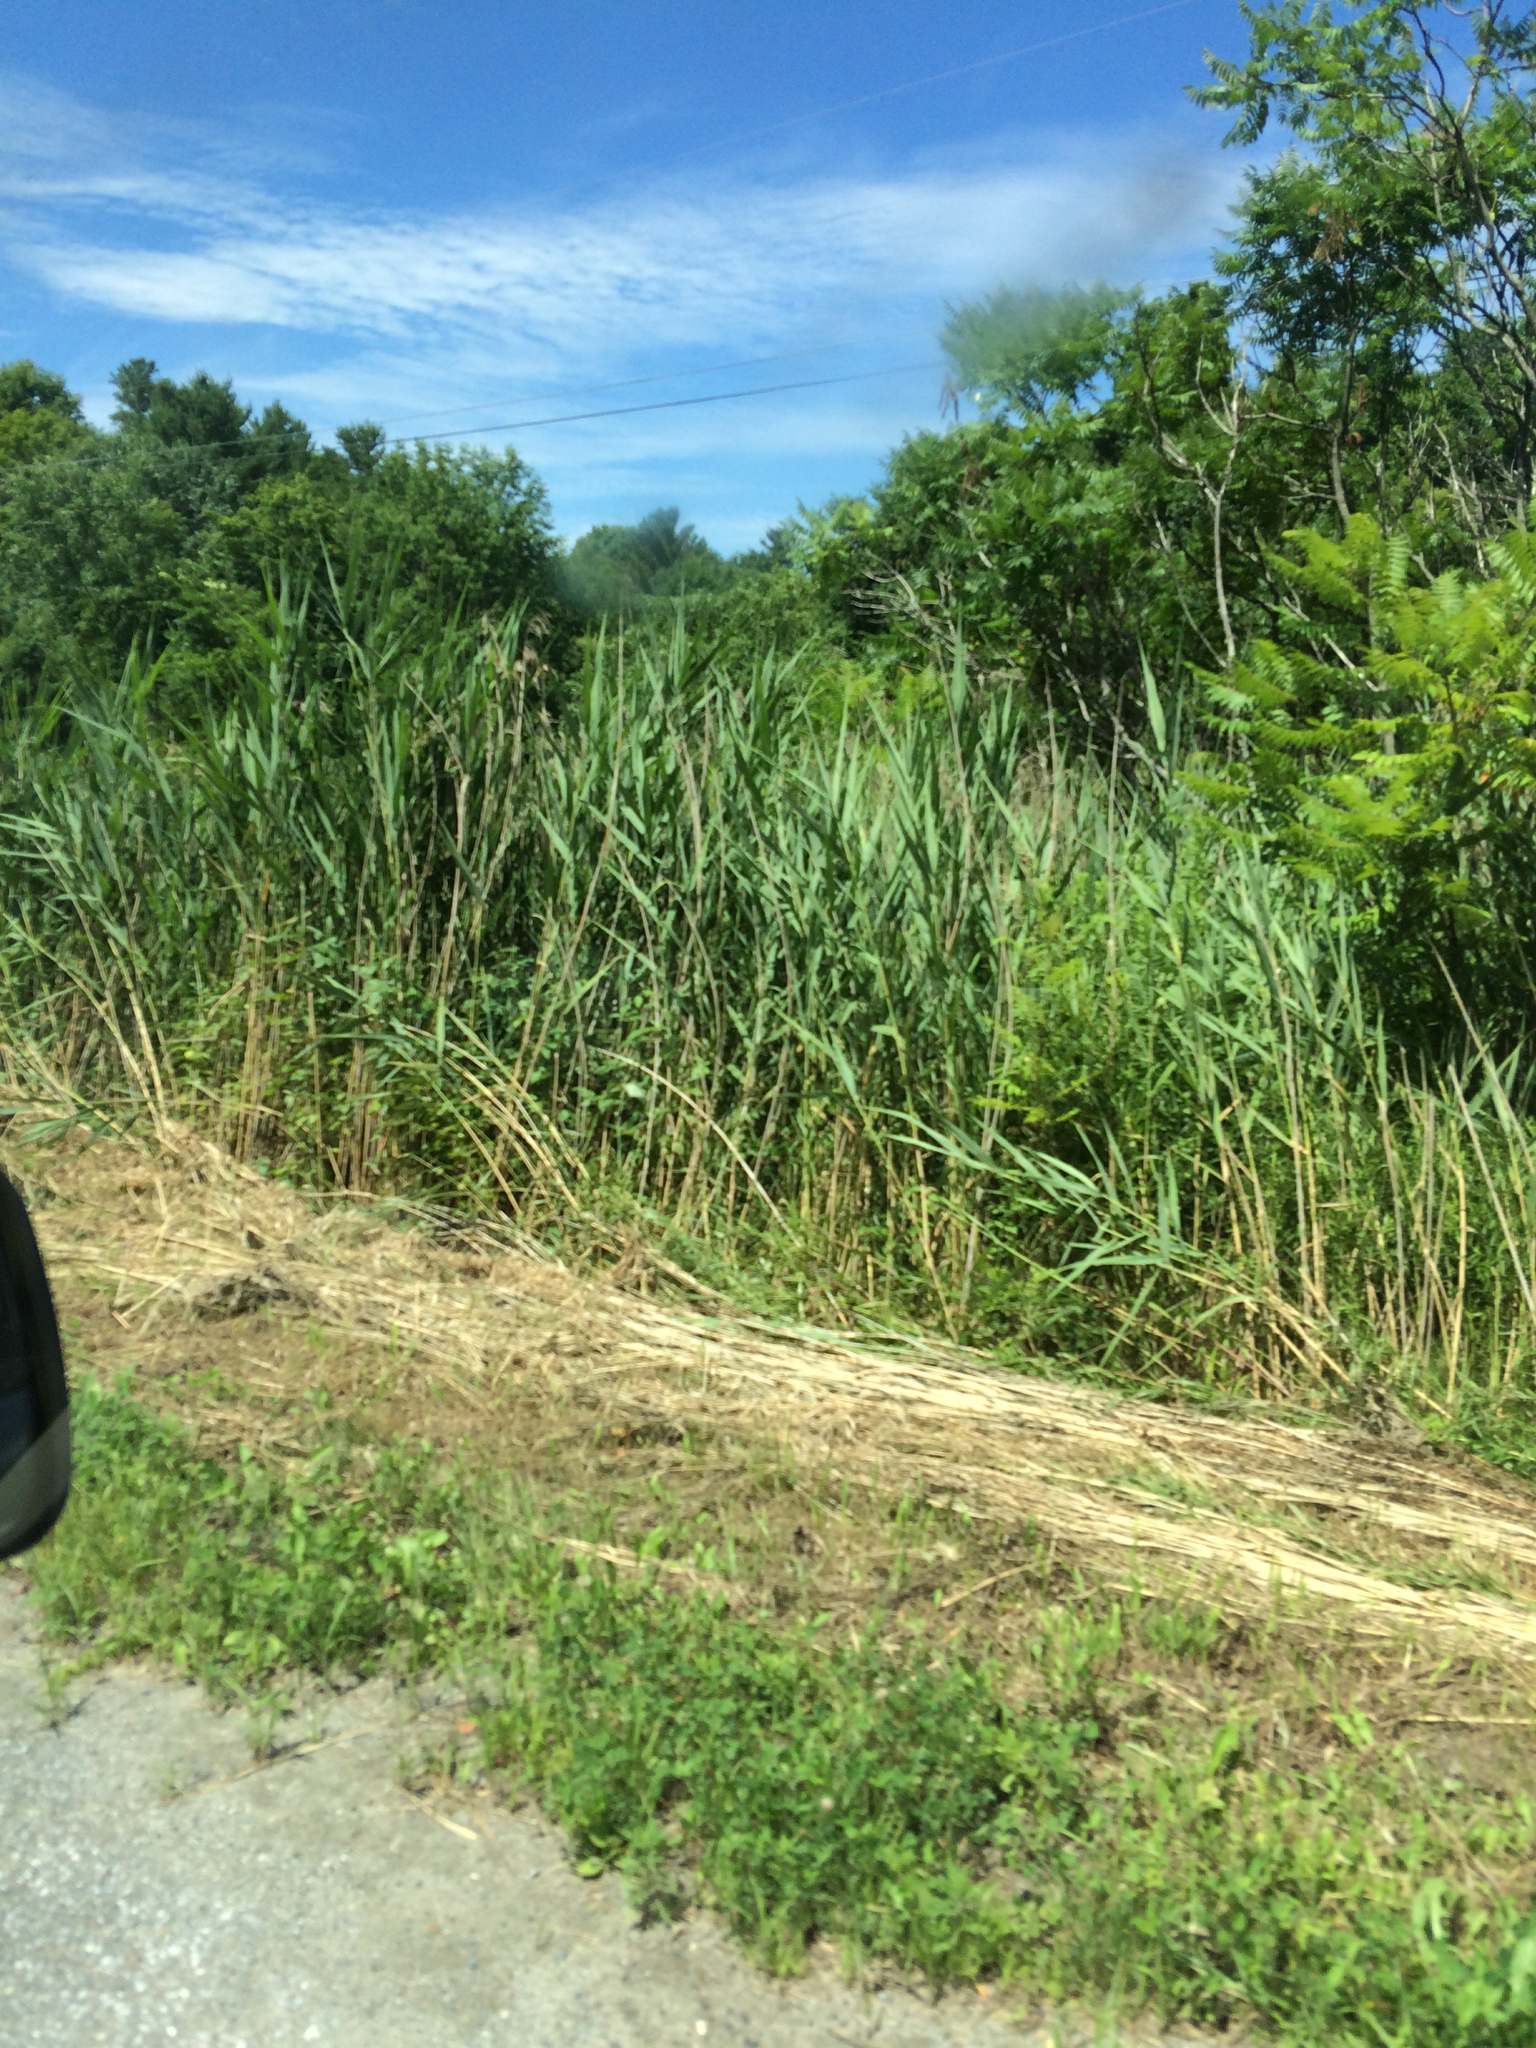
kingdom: Plantae
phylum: Tracheophyta
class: Liliopsida
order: Poales
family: Poaceae
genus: Phragmites
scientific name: Phragmites australis
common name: Common reed
